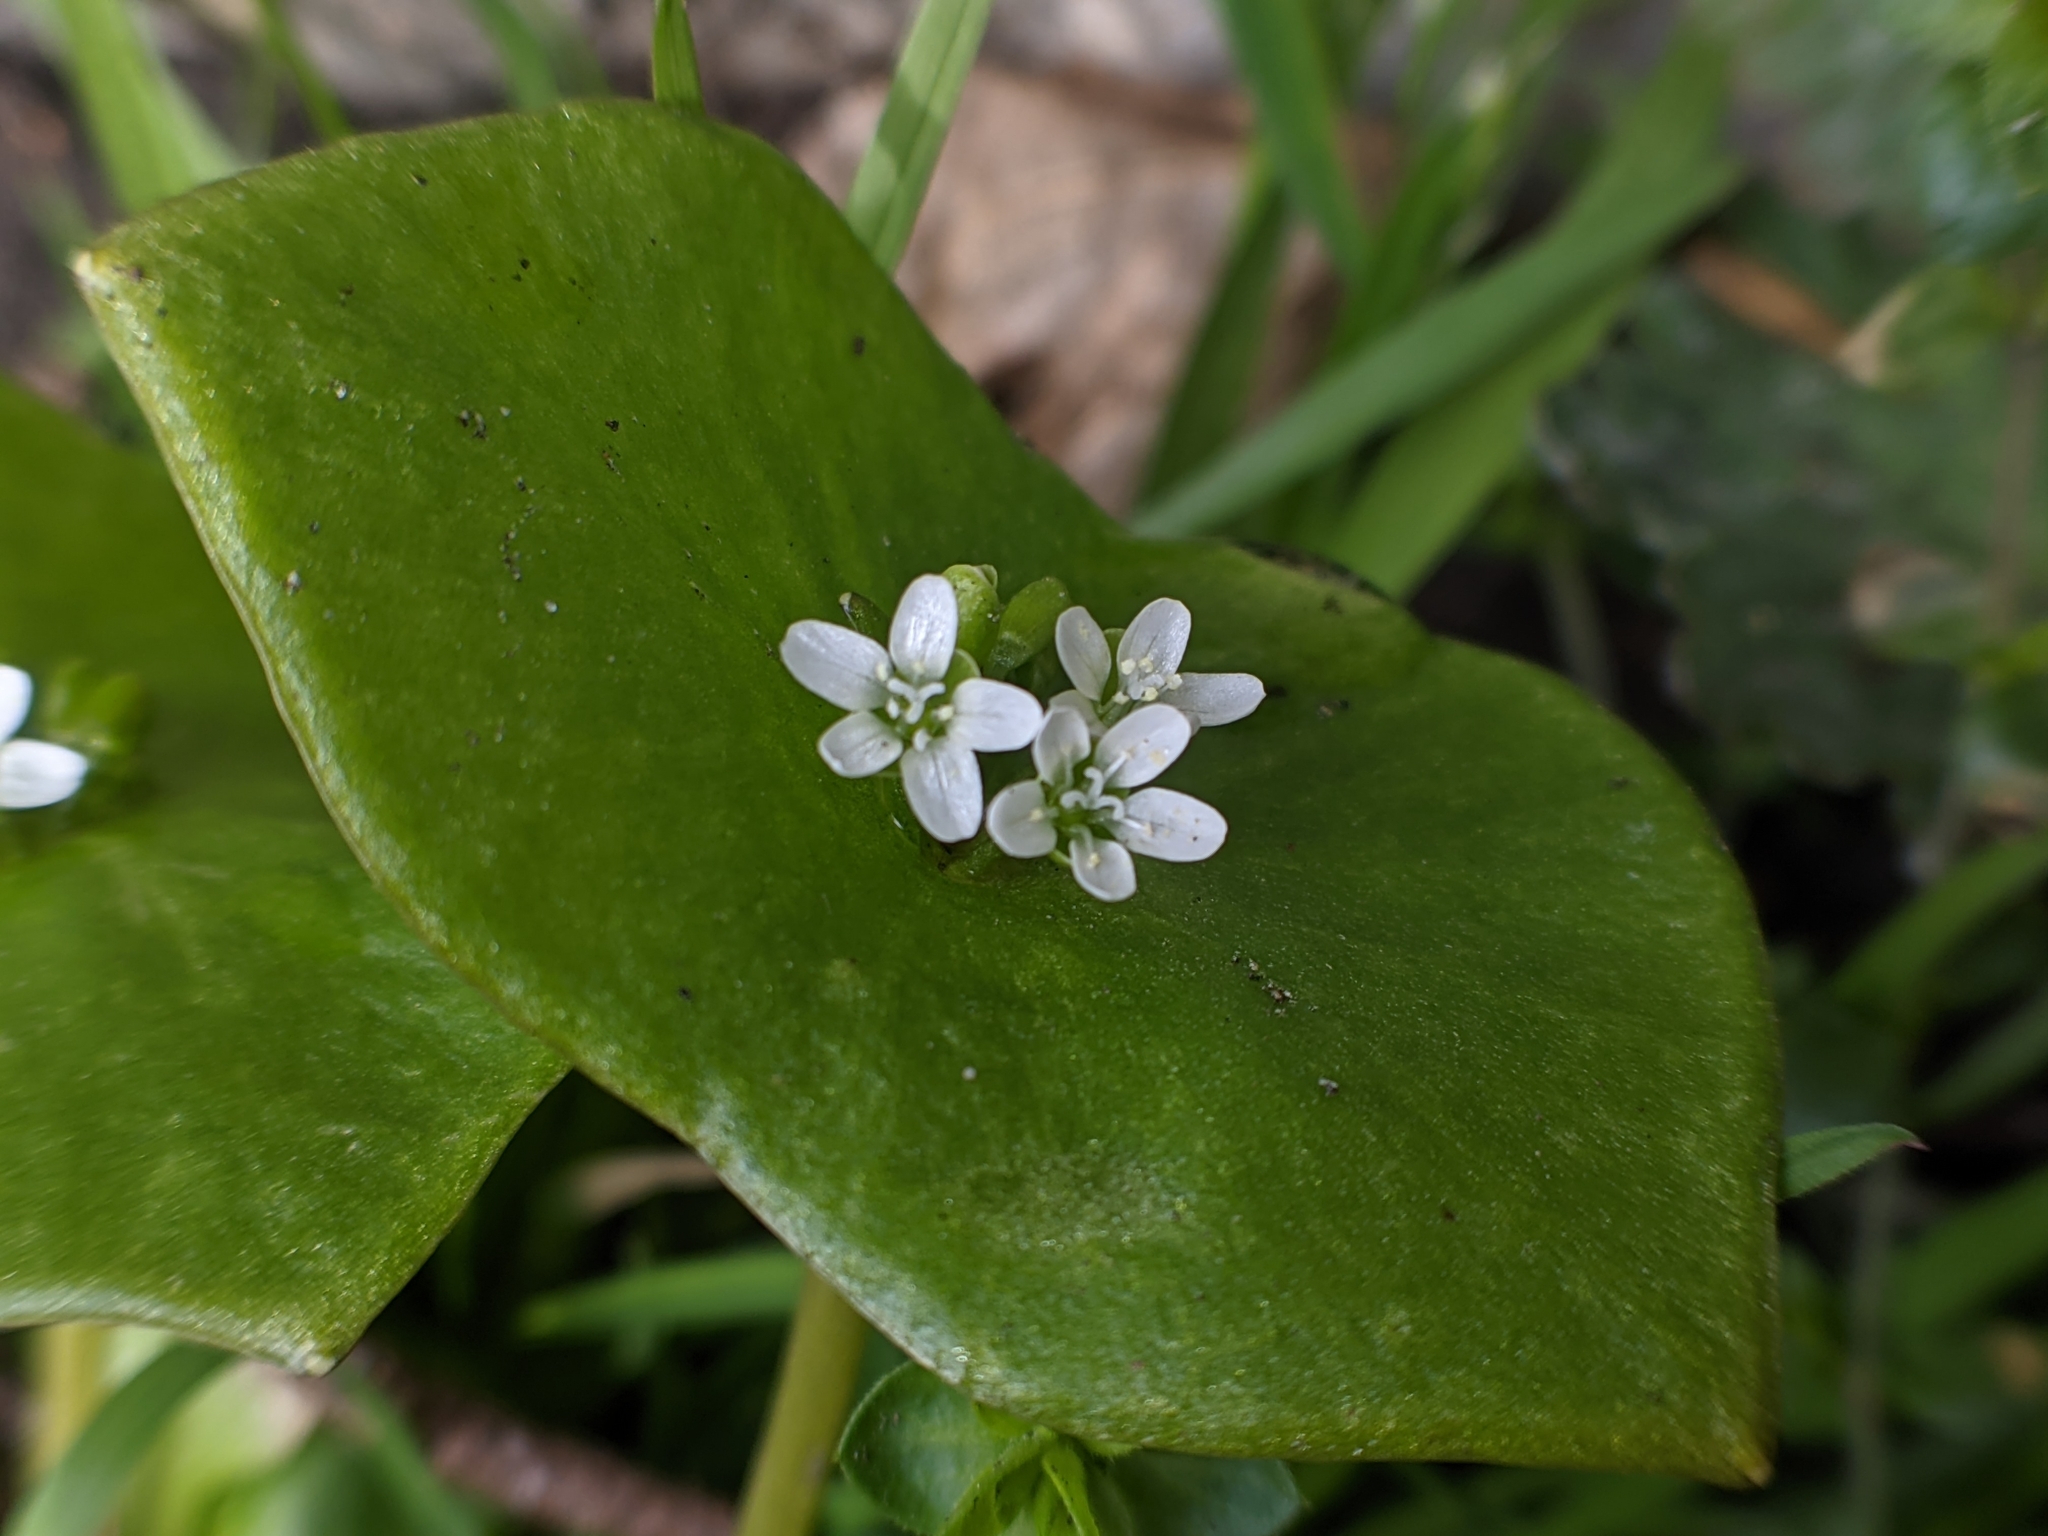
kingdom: Plantae
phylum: Tracheophyta
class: Magnoliopsida
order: Caryophyllales
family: Montiaceae
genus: Claytonia
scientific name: Claytonia perfoliata
